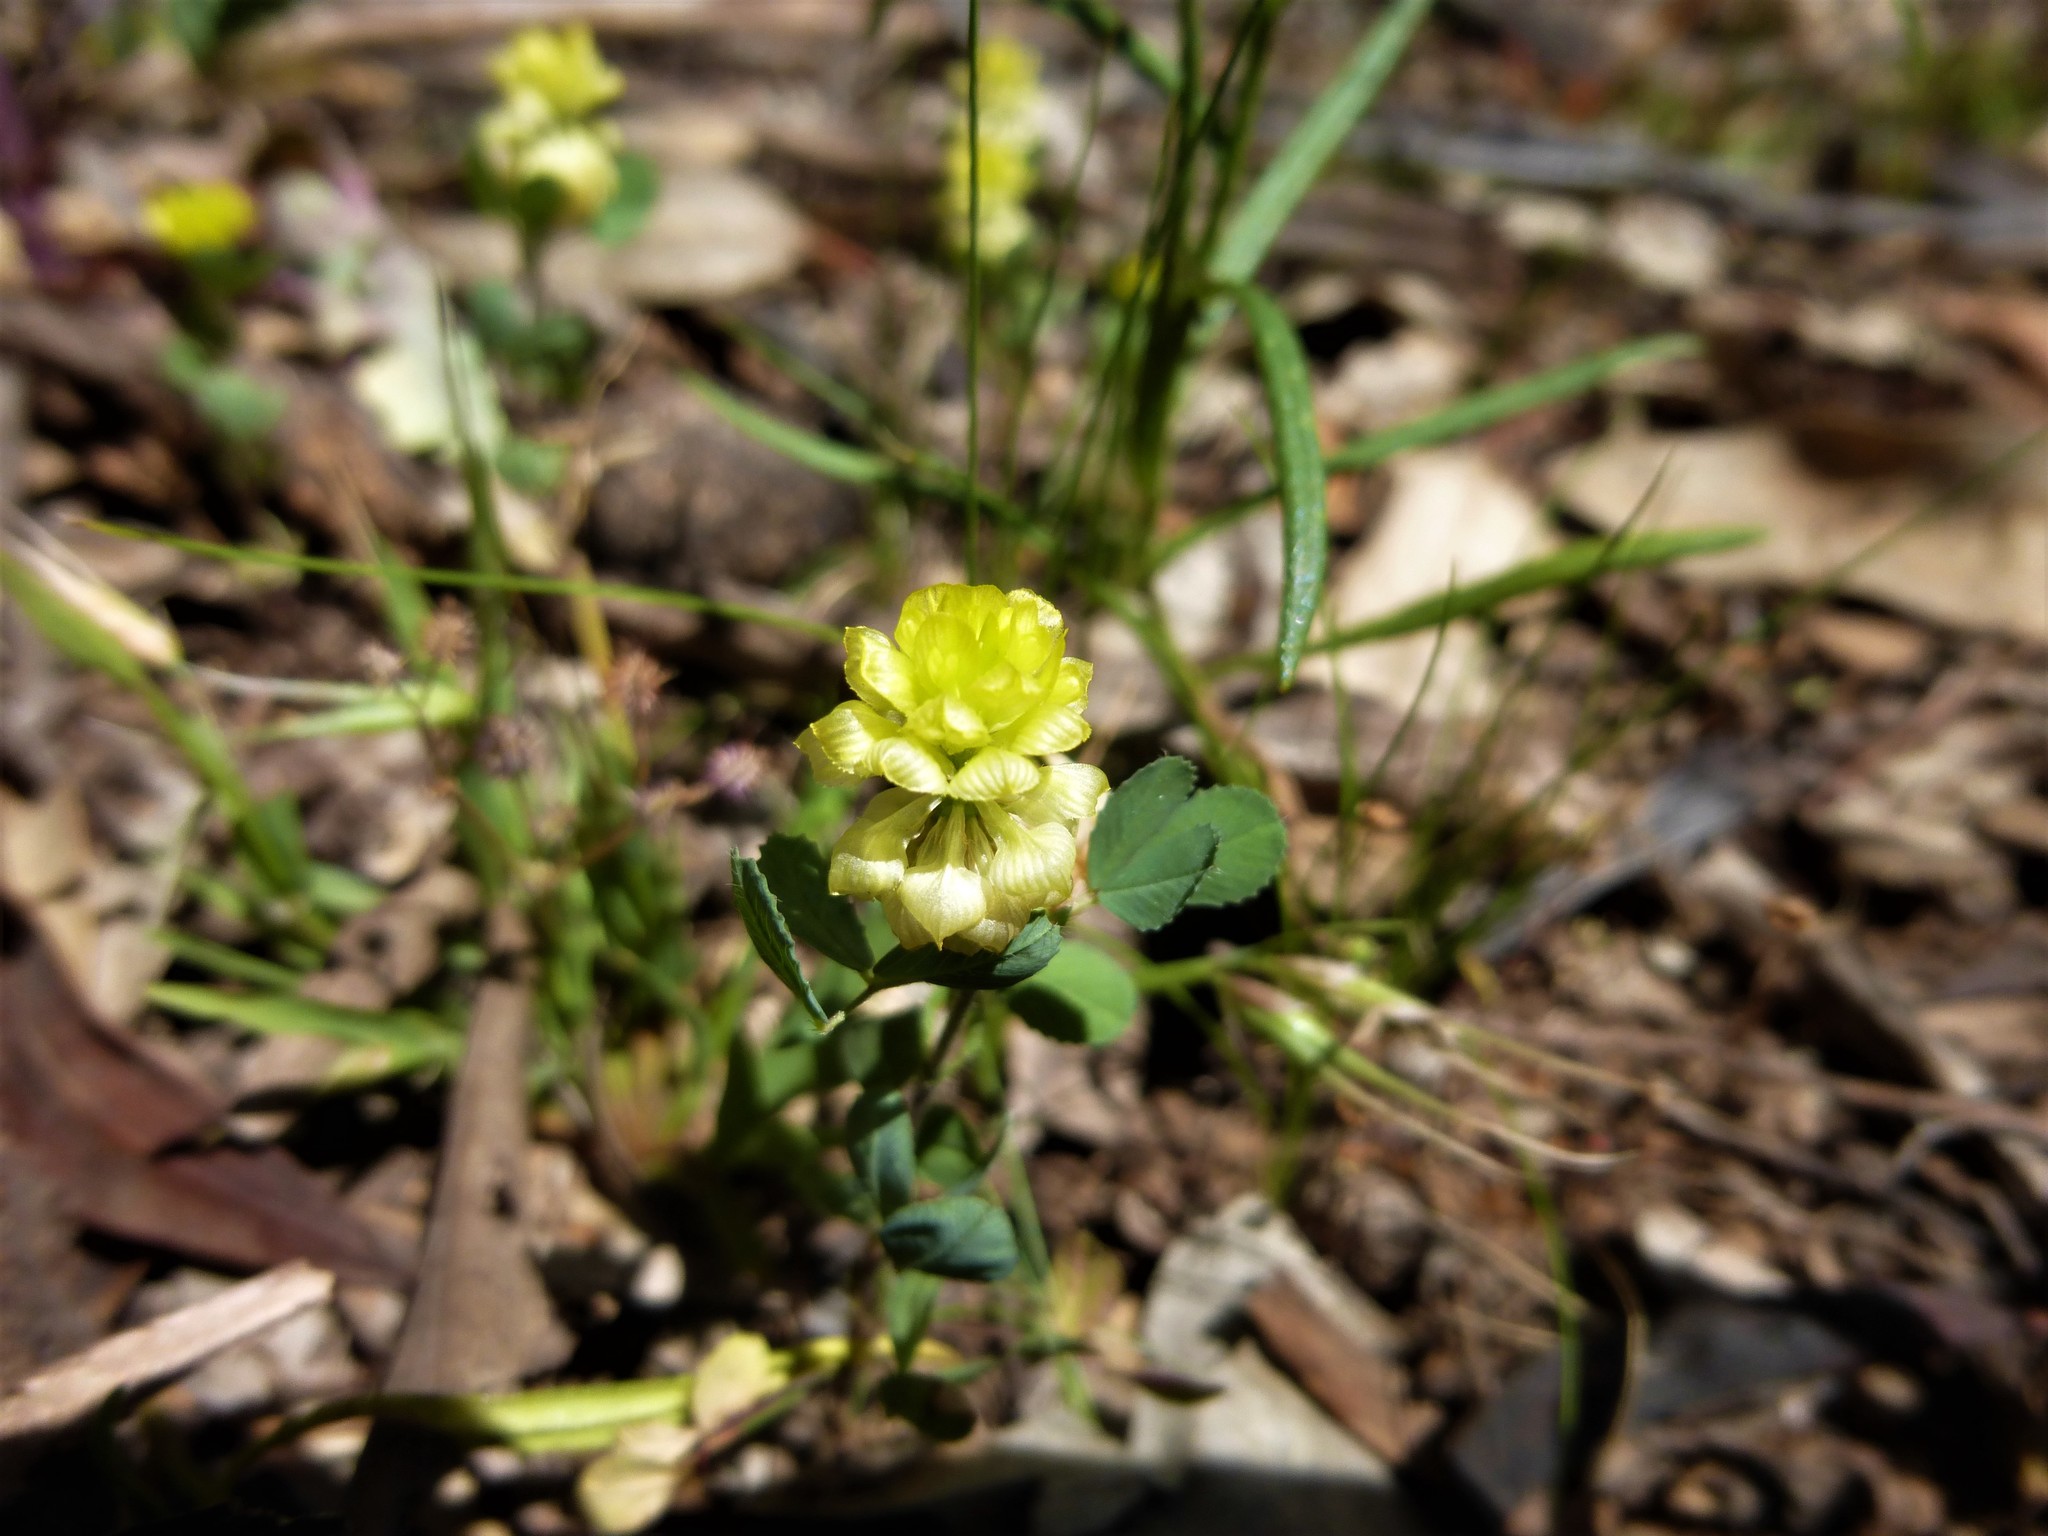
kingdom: Plantae
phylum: Tracheophyta
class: Magnoliopsida
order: Fabales
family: Fabaceae
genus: Trifolium
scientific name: Trifolium campestre
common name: Field clover
